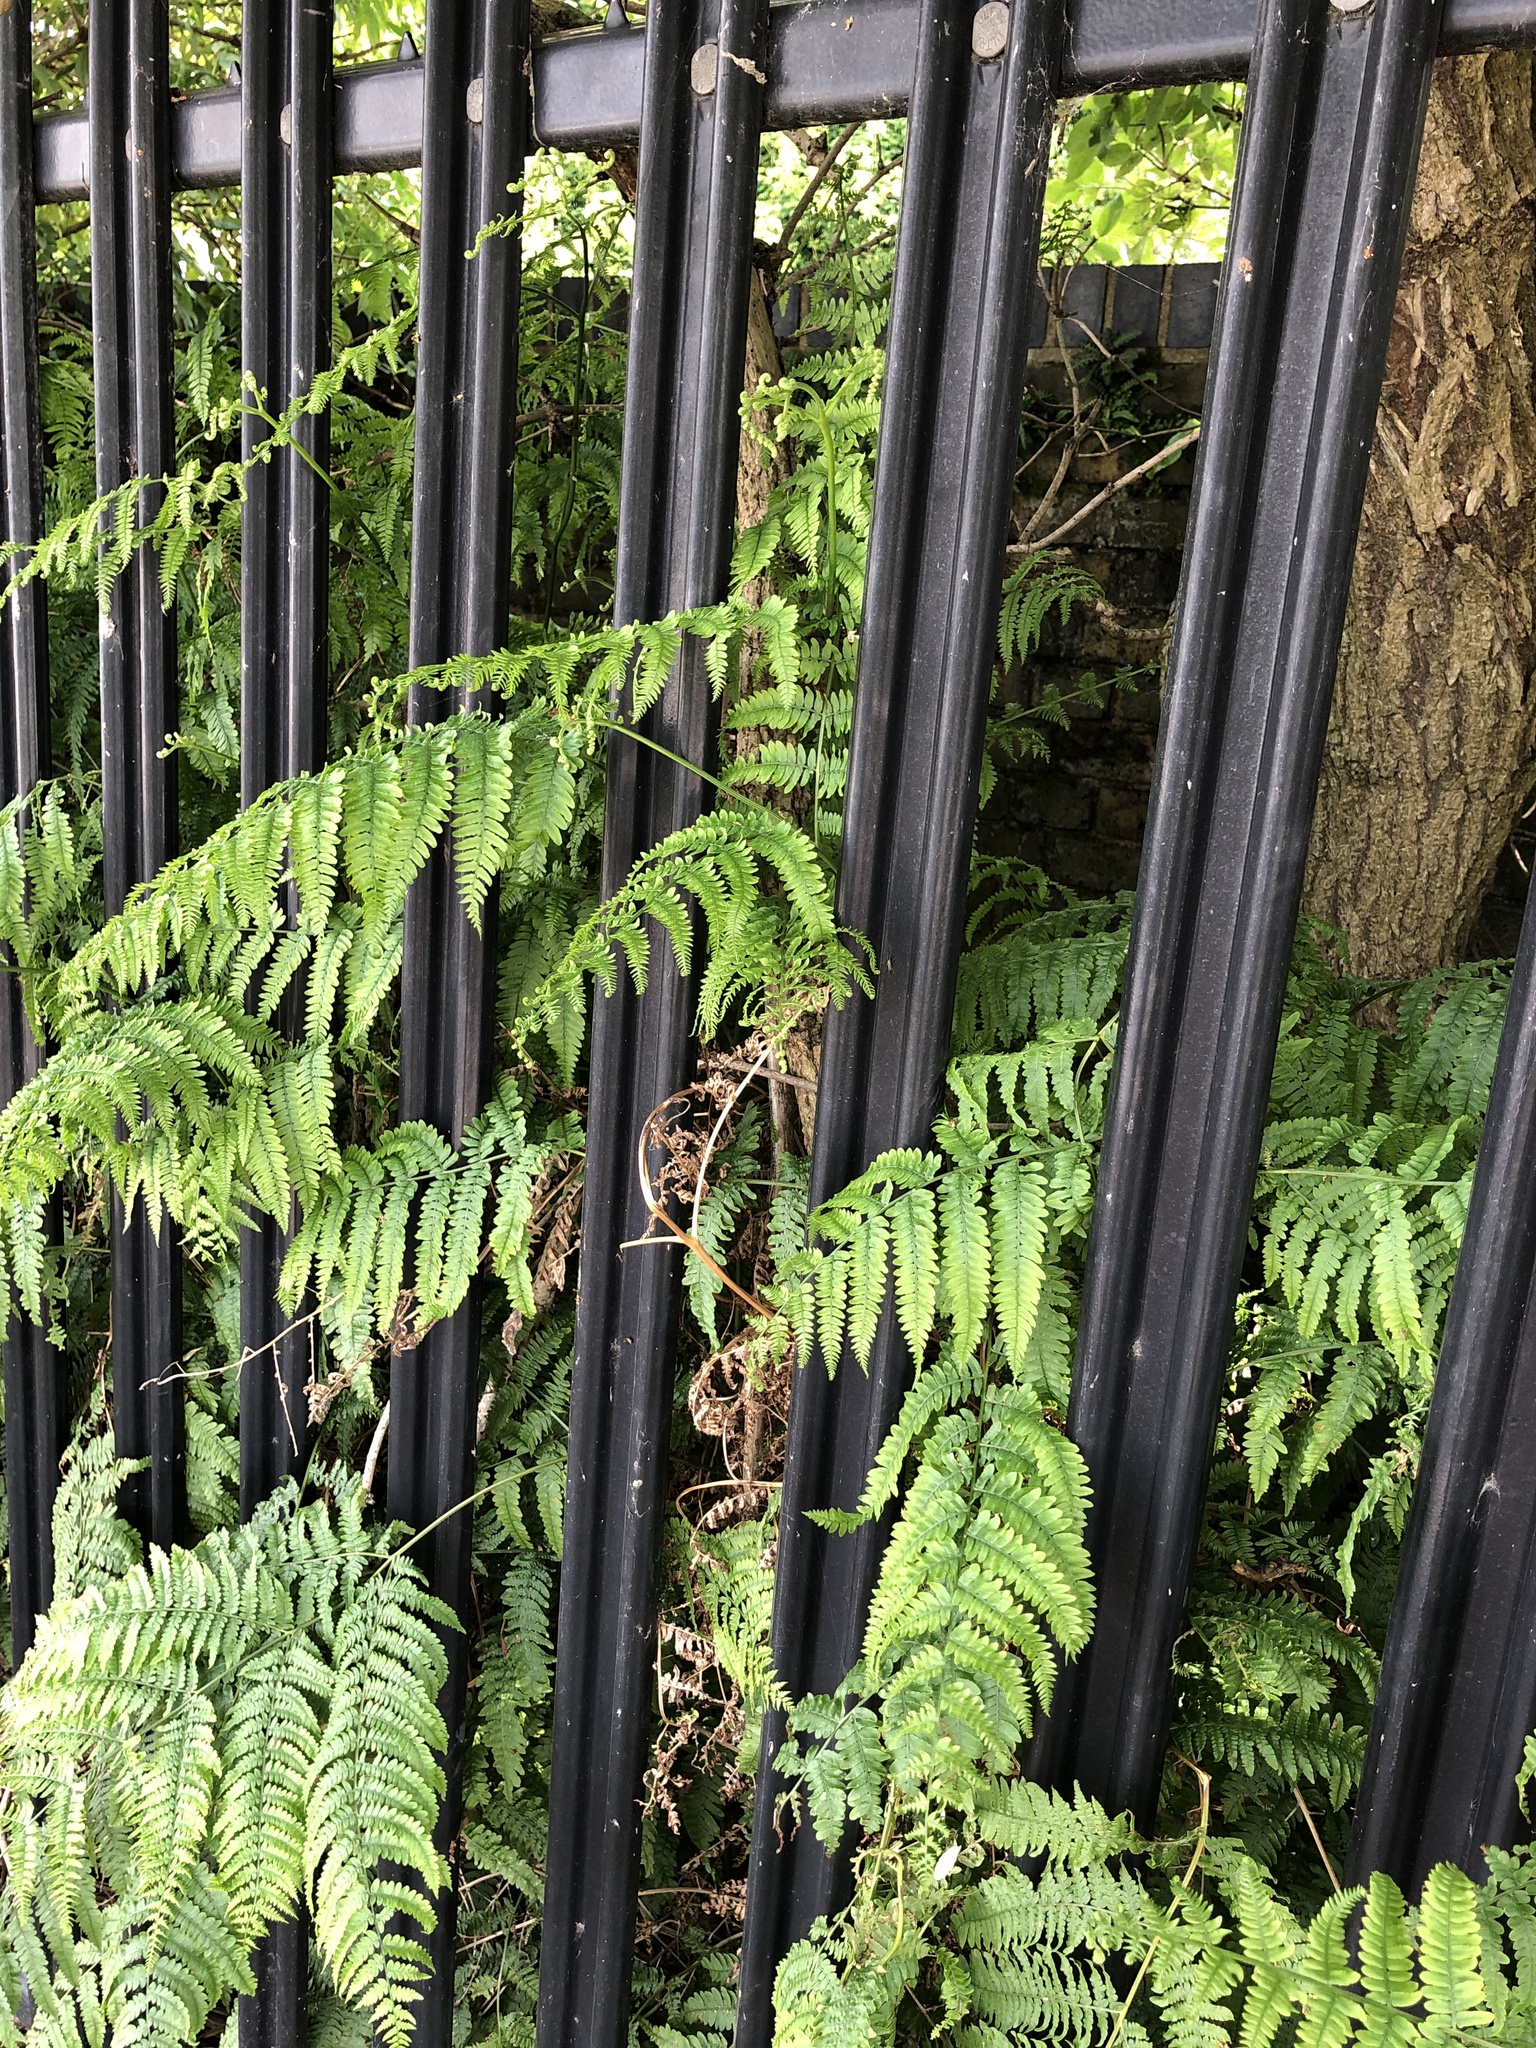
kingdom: Plantae
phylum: Tracheophyta
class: Polypodiopsida
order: Polypodiales
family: Dennstaedtiaceae
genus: Pteridium
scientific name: Pteridium aquilinum
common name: Bracken
